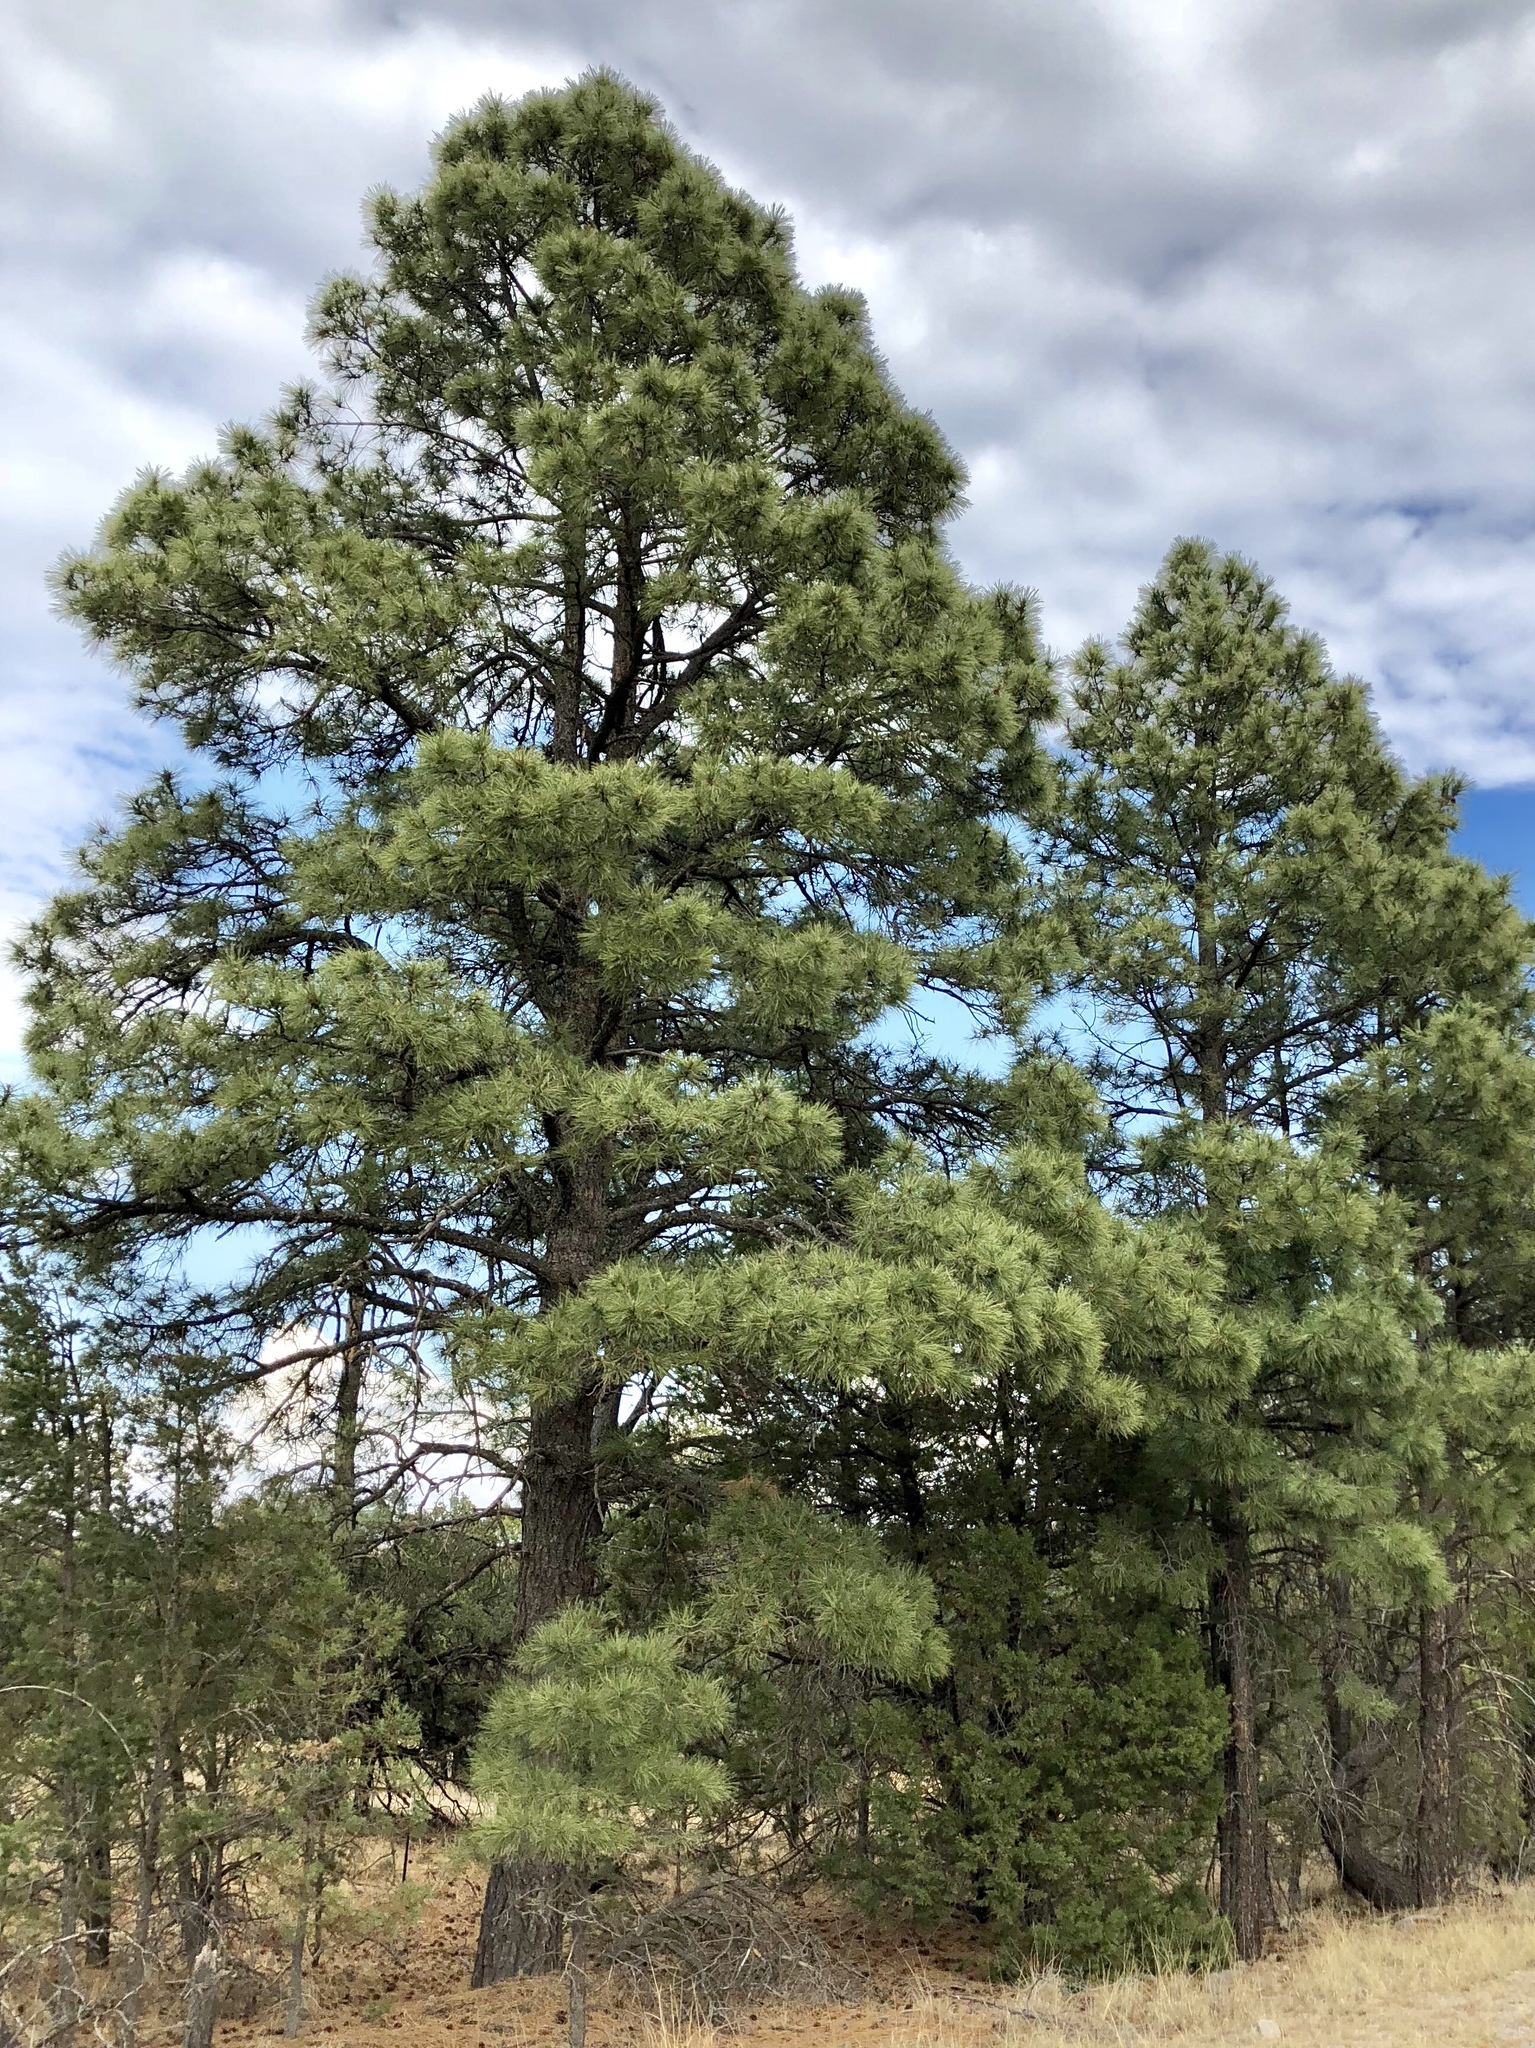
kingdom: Plantae
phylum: Tracheophyta
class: Pinopsida
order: Pinales
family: Pinaceae
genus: Pinus
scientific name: Pinus ponderosa
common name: Western yellow-pine
